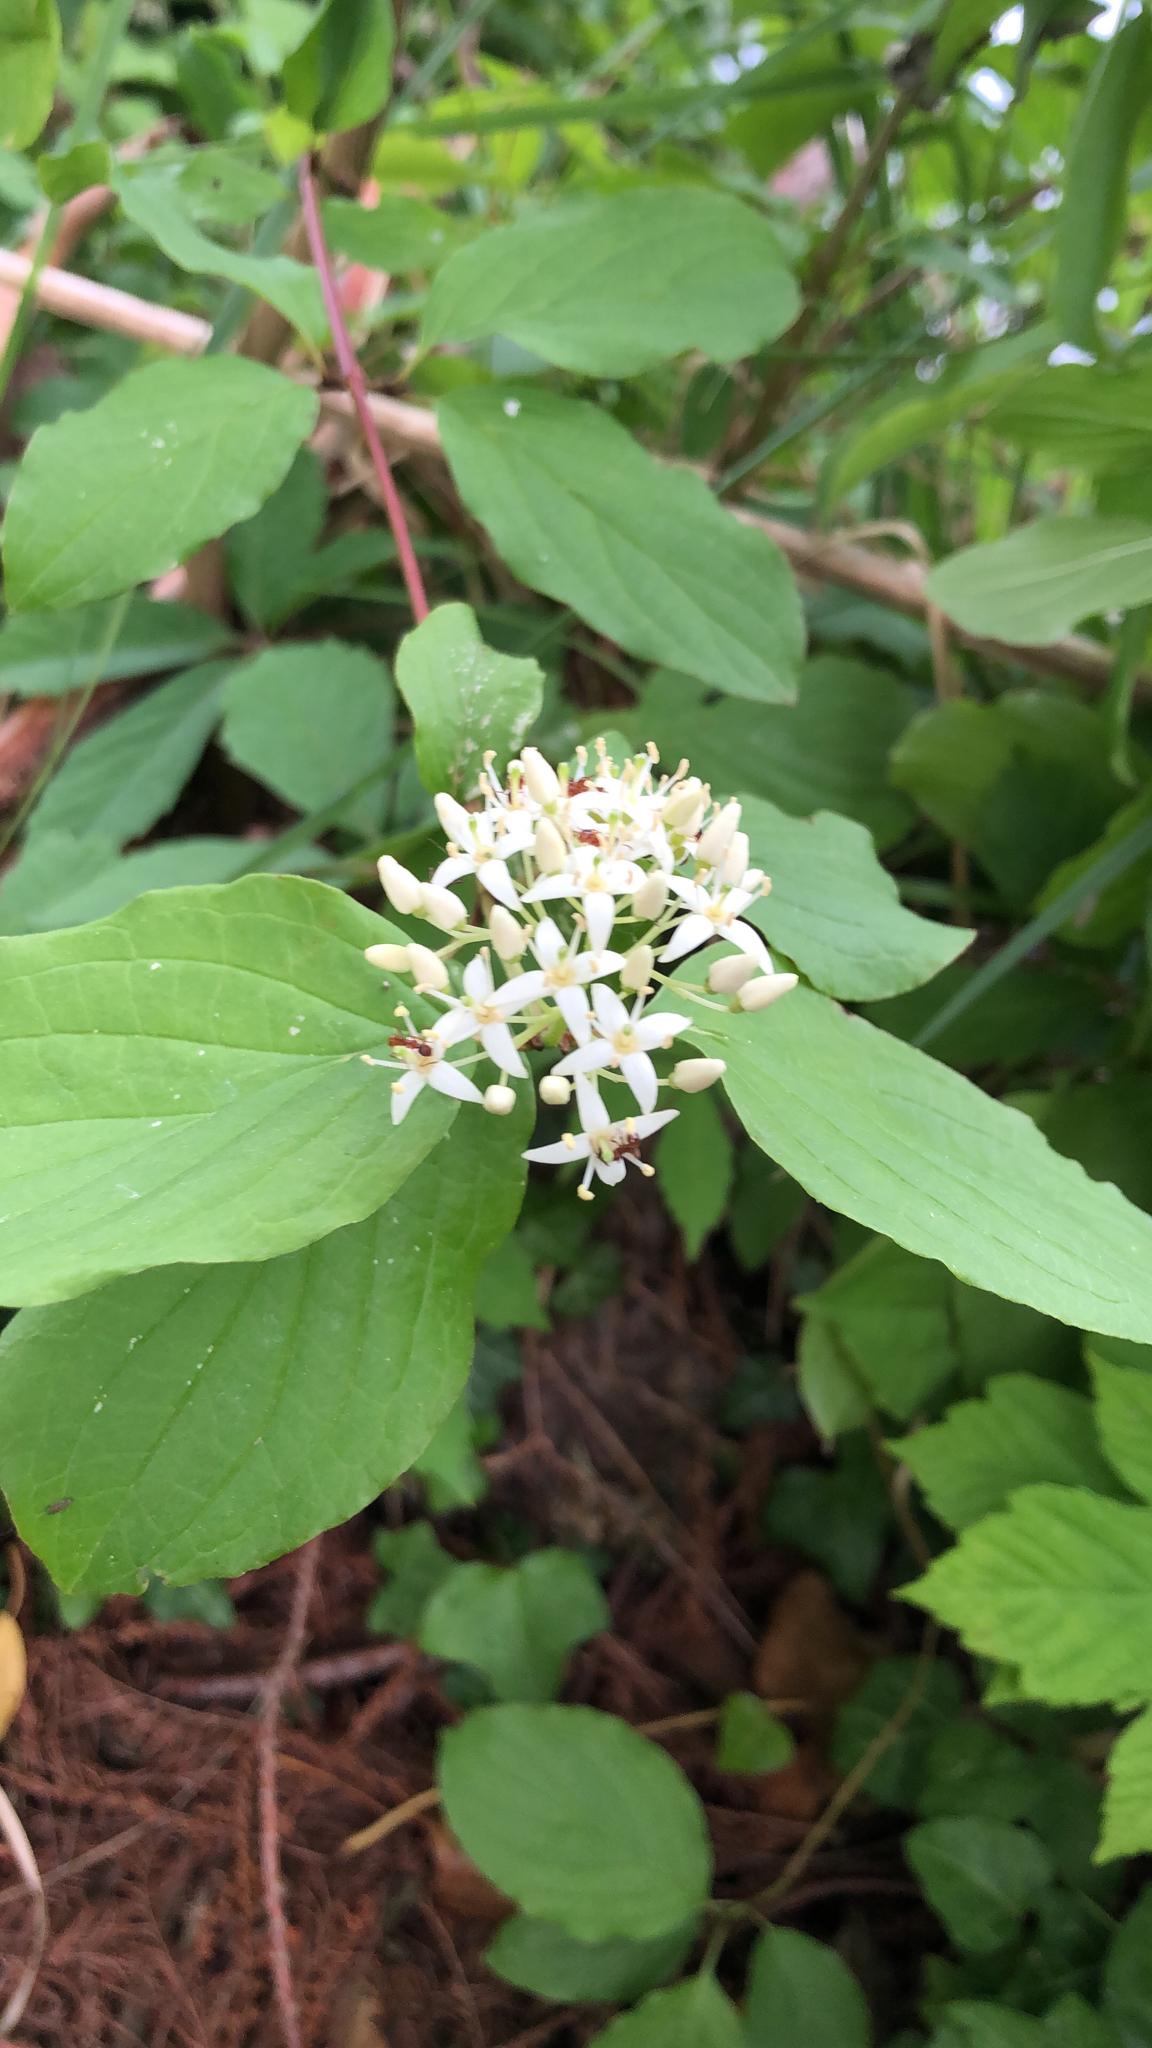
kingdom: Plantae
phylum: Tracheophyta
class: Magnoliopsida
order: Cornales
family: Cornaceae
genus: Cornus
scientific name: Cornus sanguinea
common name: Dogwood
